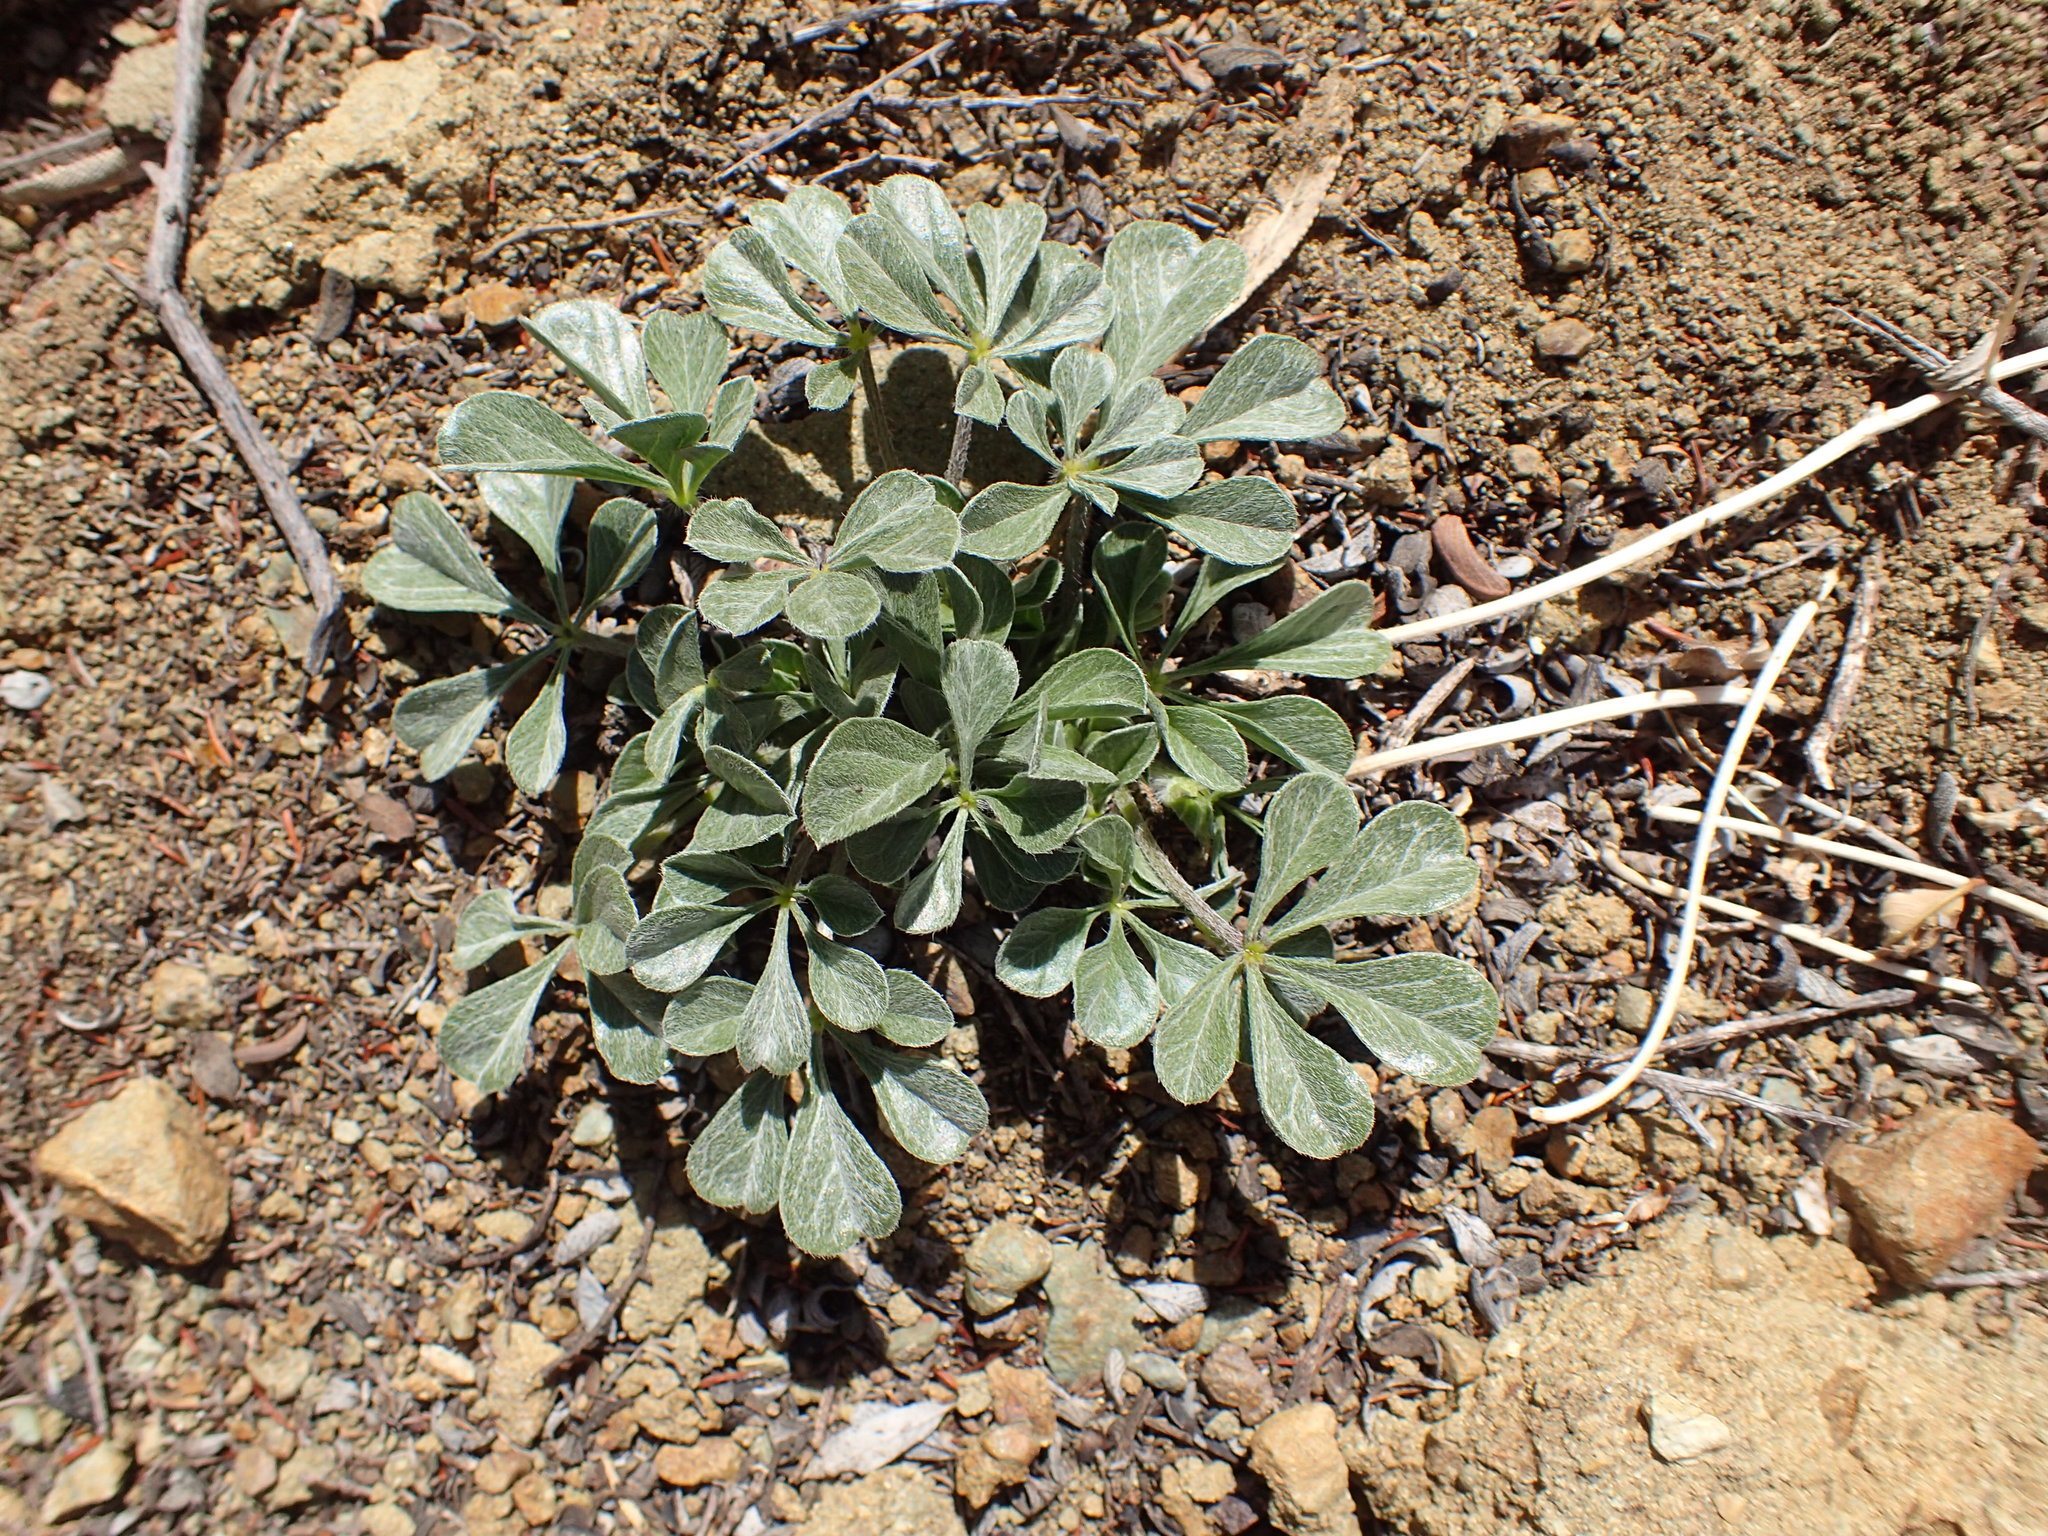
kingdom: Plantae
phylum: Tracheophyta
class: Magnoliopsida
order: Fabales
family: Fabaceae
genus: Pediomelum
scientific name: Pediomelum californicum
